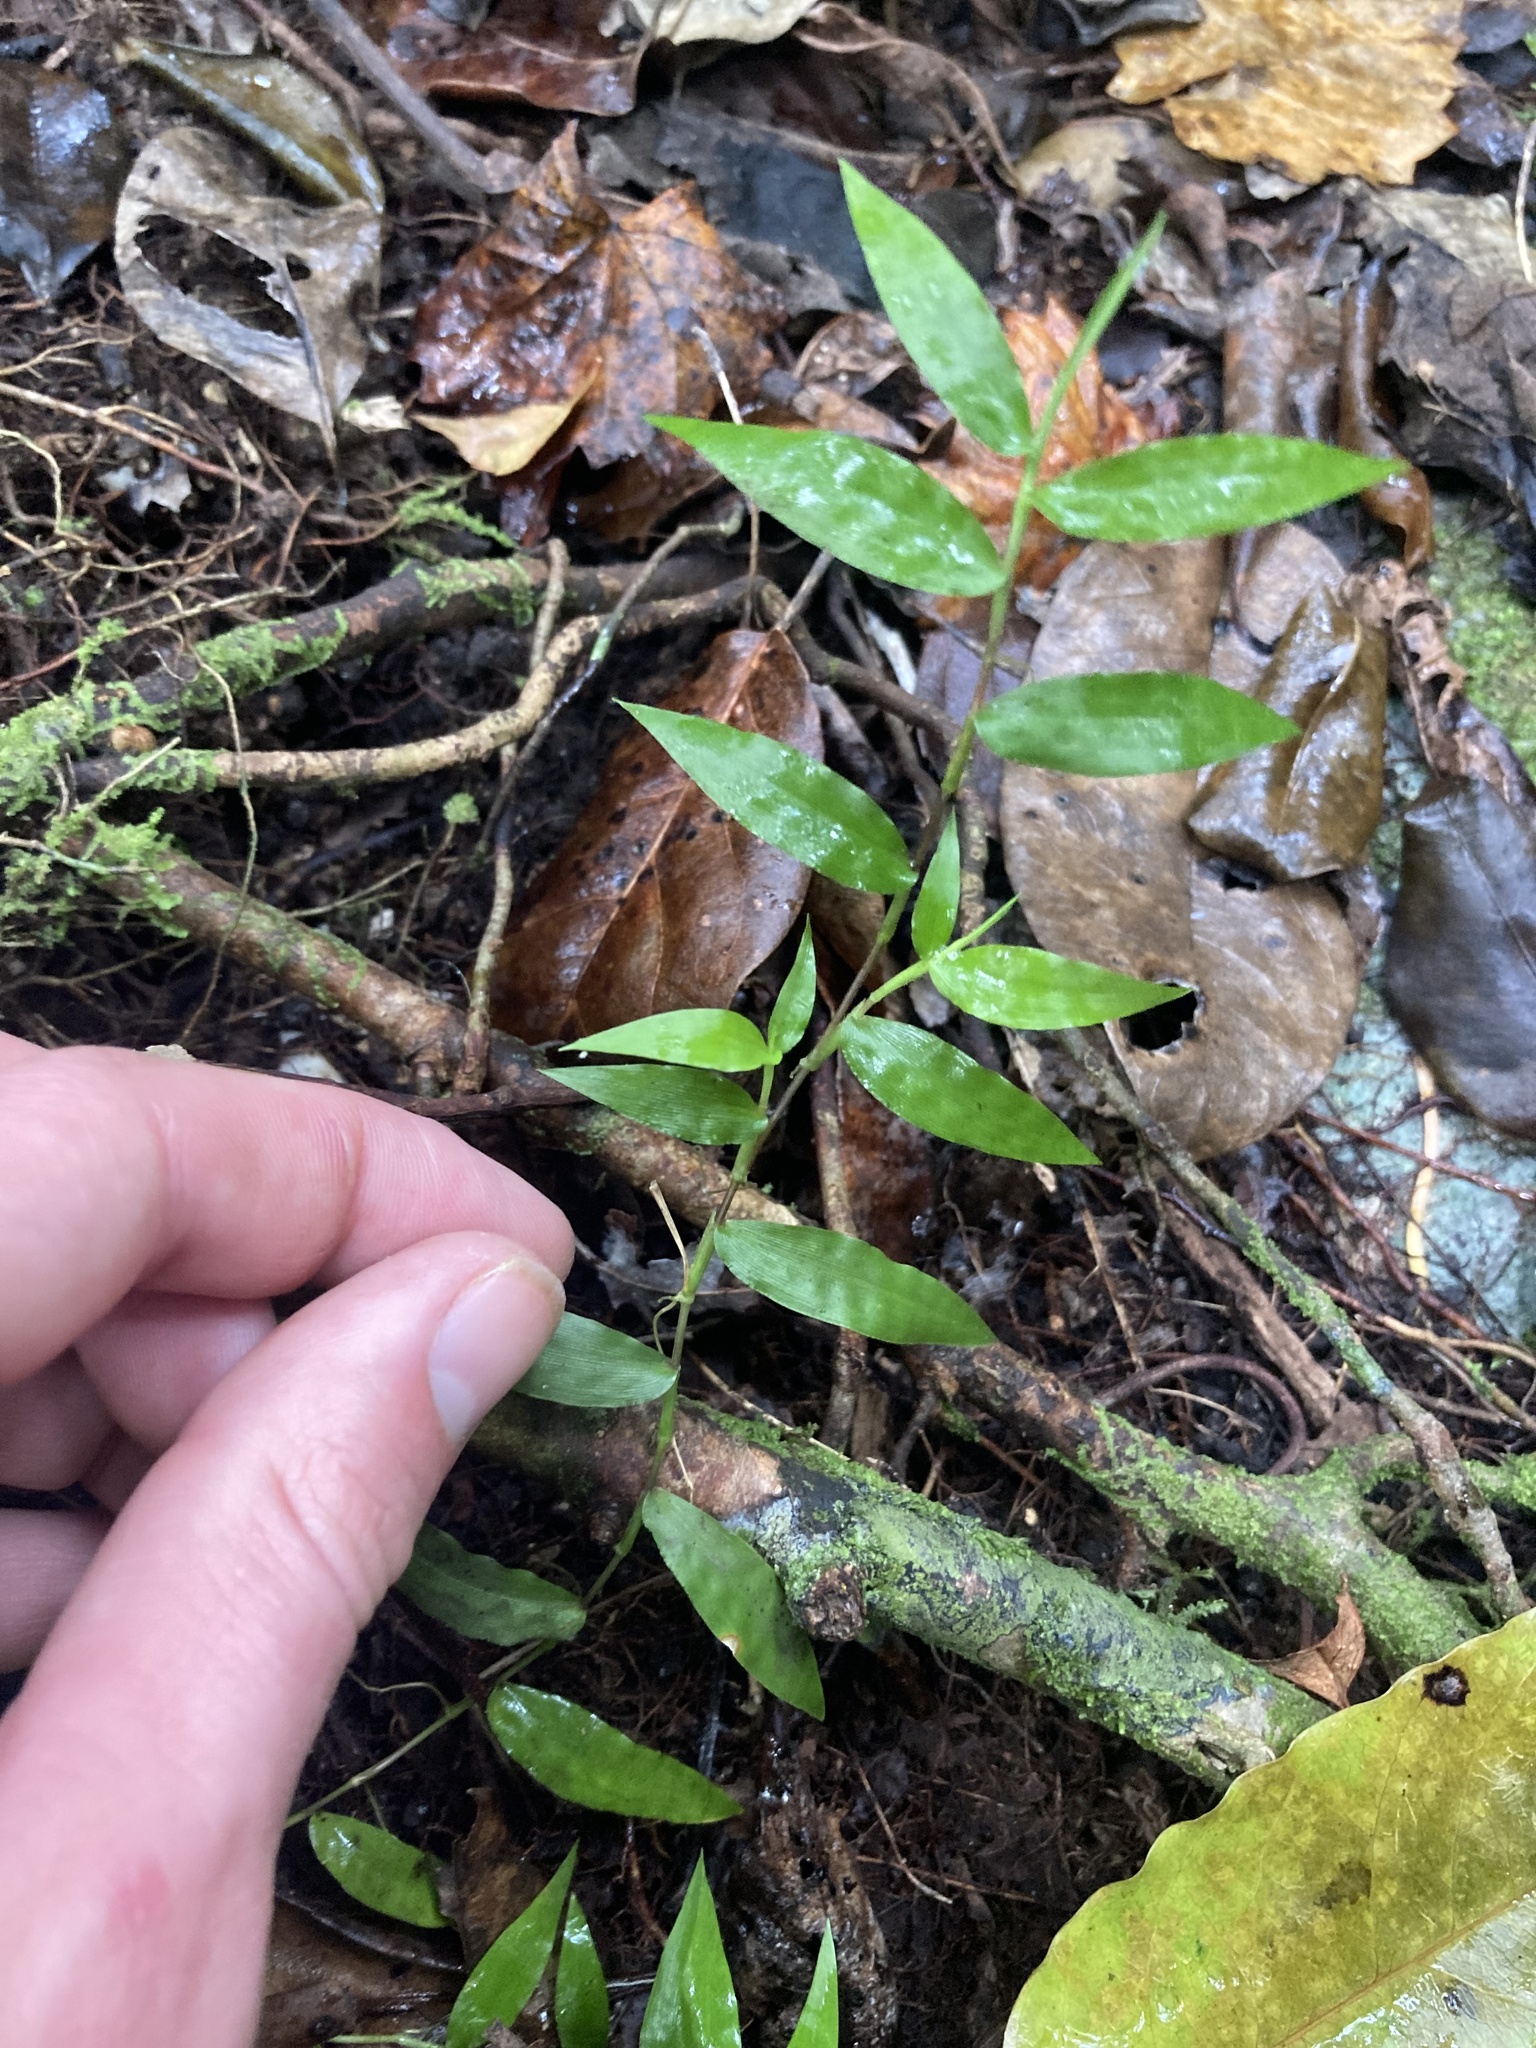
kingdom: Plantae
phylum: Tracheophyta
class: Liliopsida
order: Poales
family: Poaceae
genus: Oplismenus
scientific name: Oplismenus hirtellus
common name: Basketgrass
